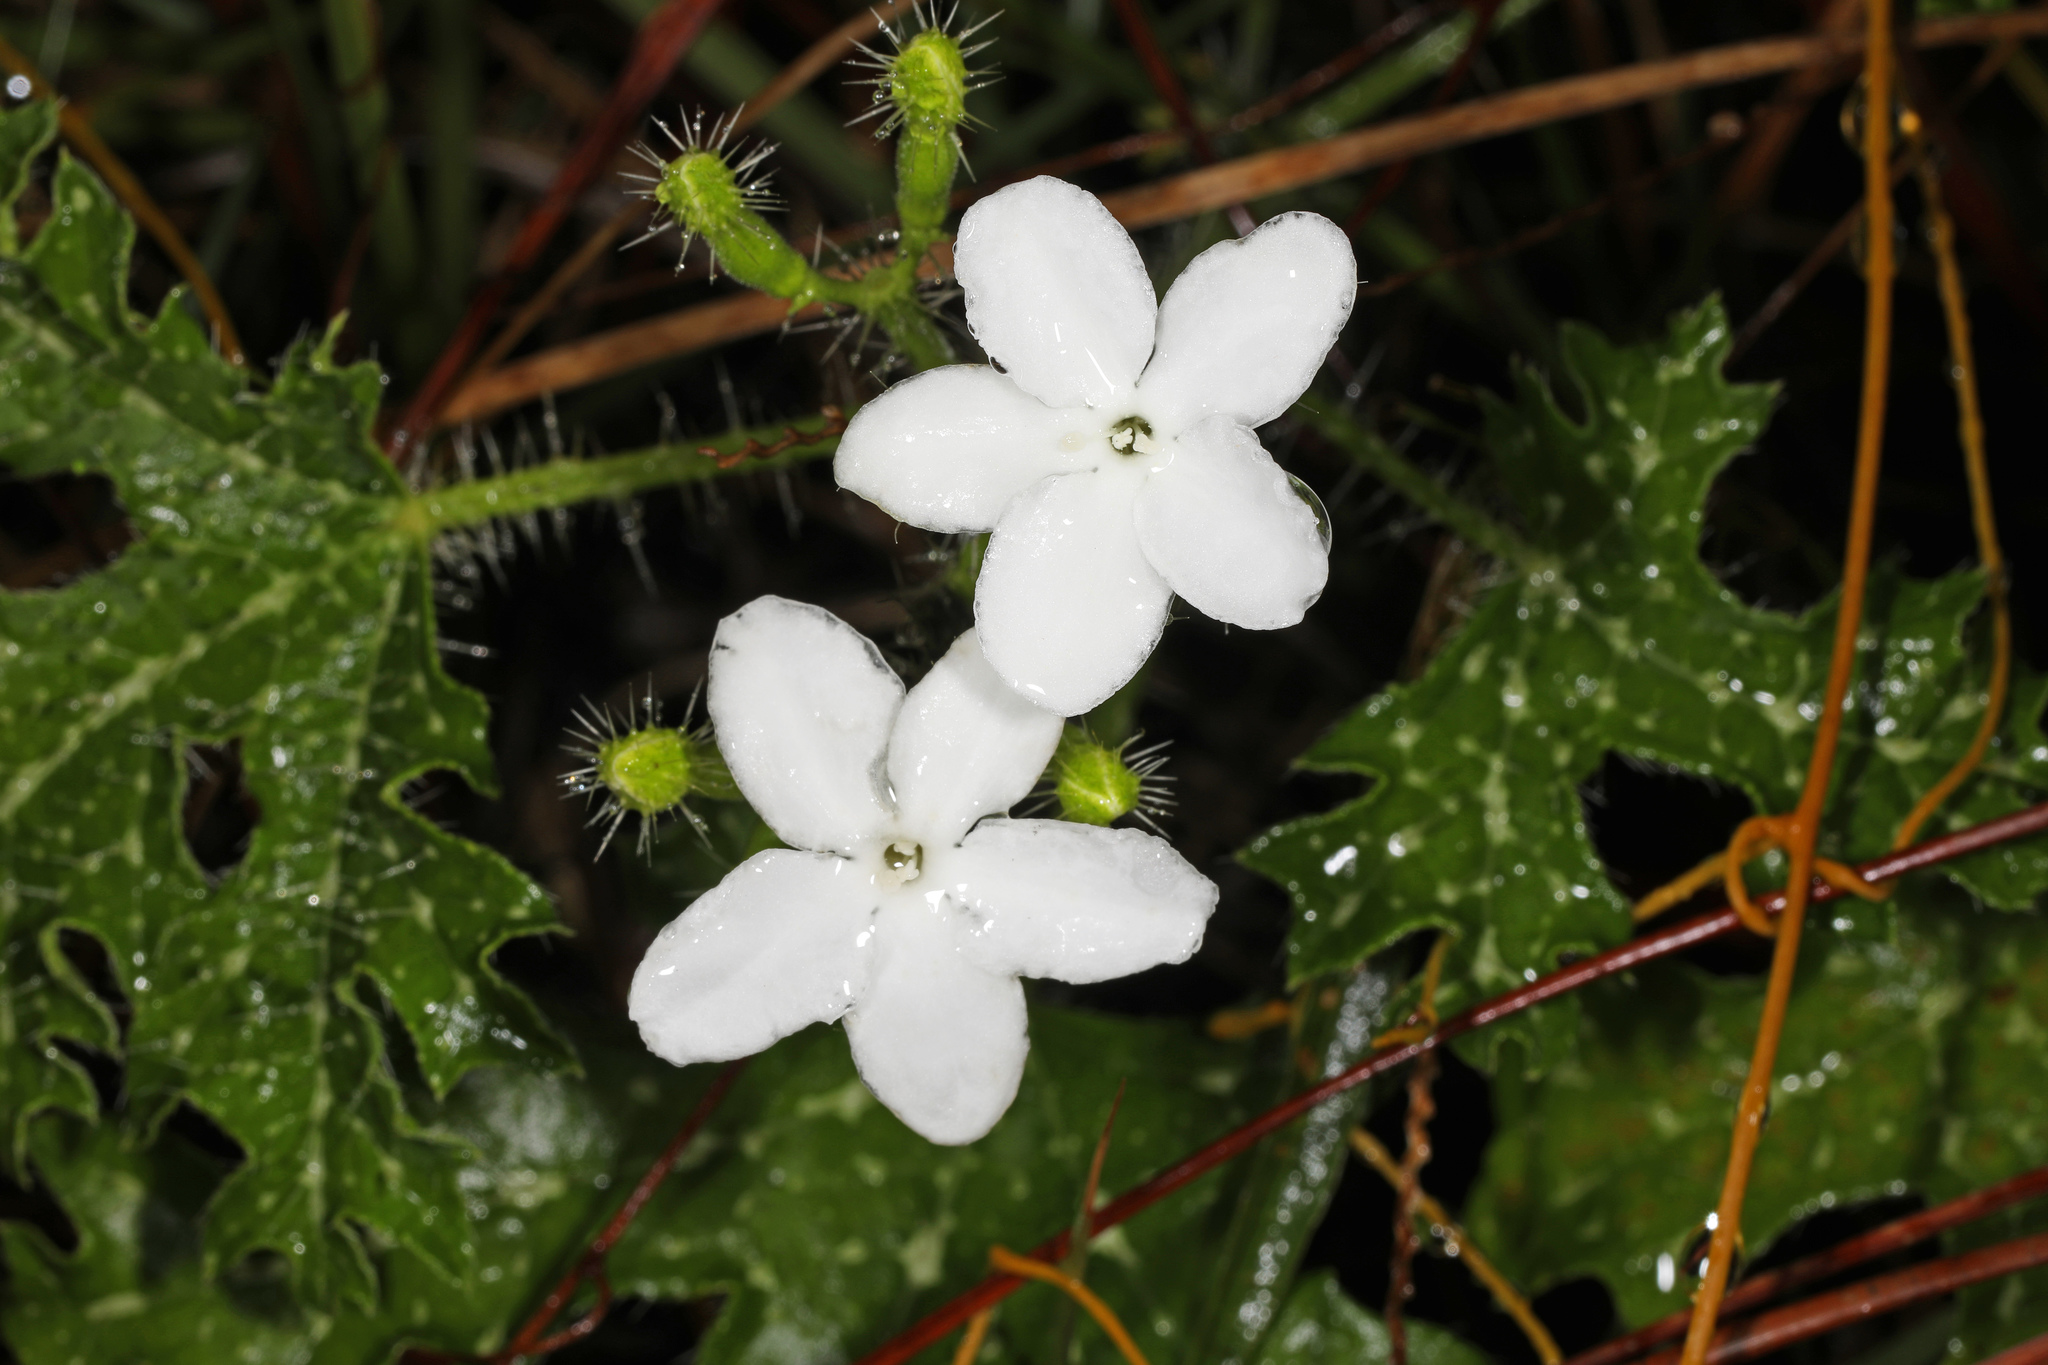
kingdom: Plantae
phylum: Tracheophyta
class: Magnoliopsida
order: Malpighiales
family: Euphorbiaceae
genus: Cnidoscolus
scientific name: Cnidoscolus stimulosus
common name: Bull-nettle
